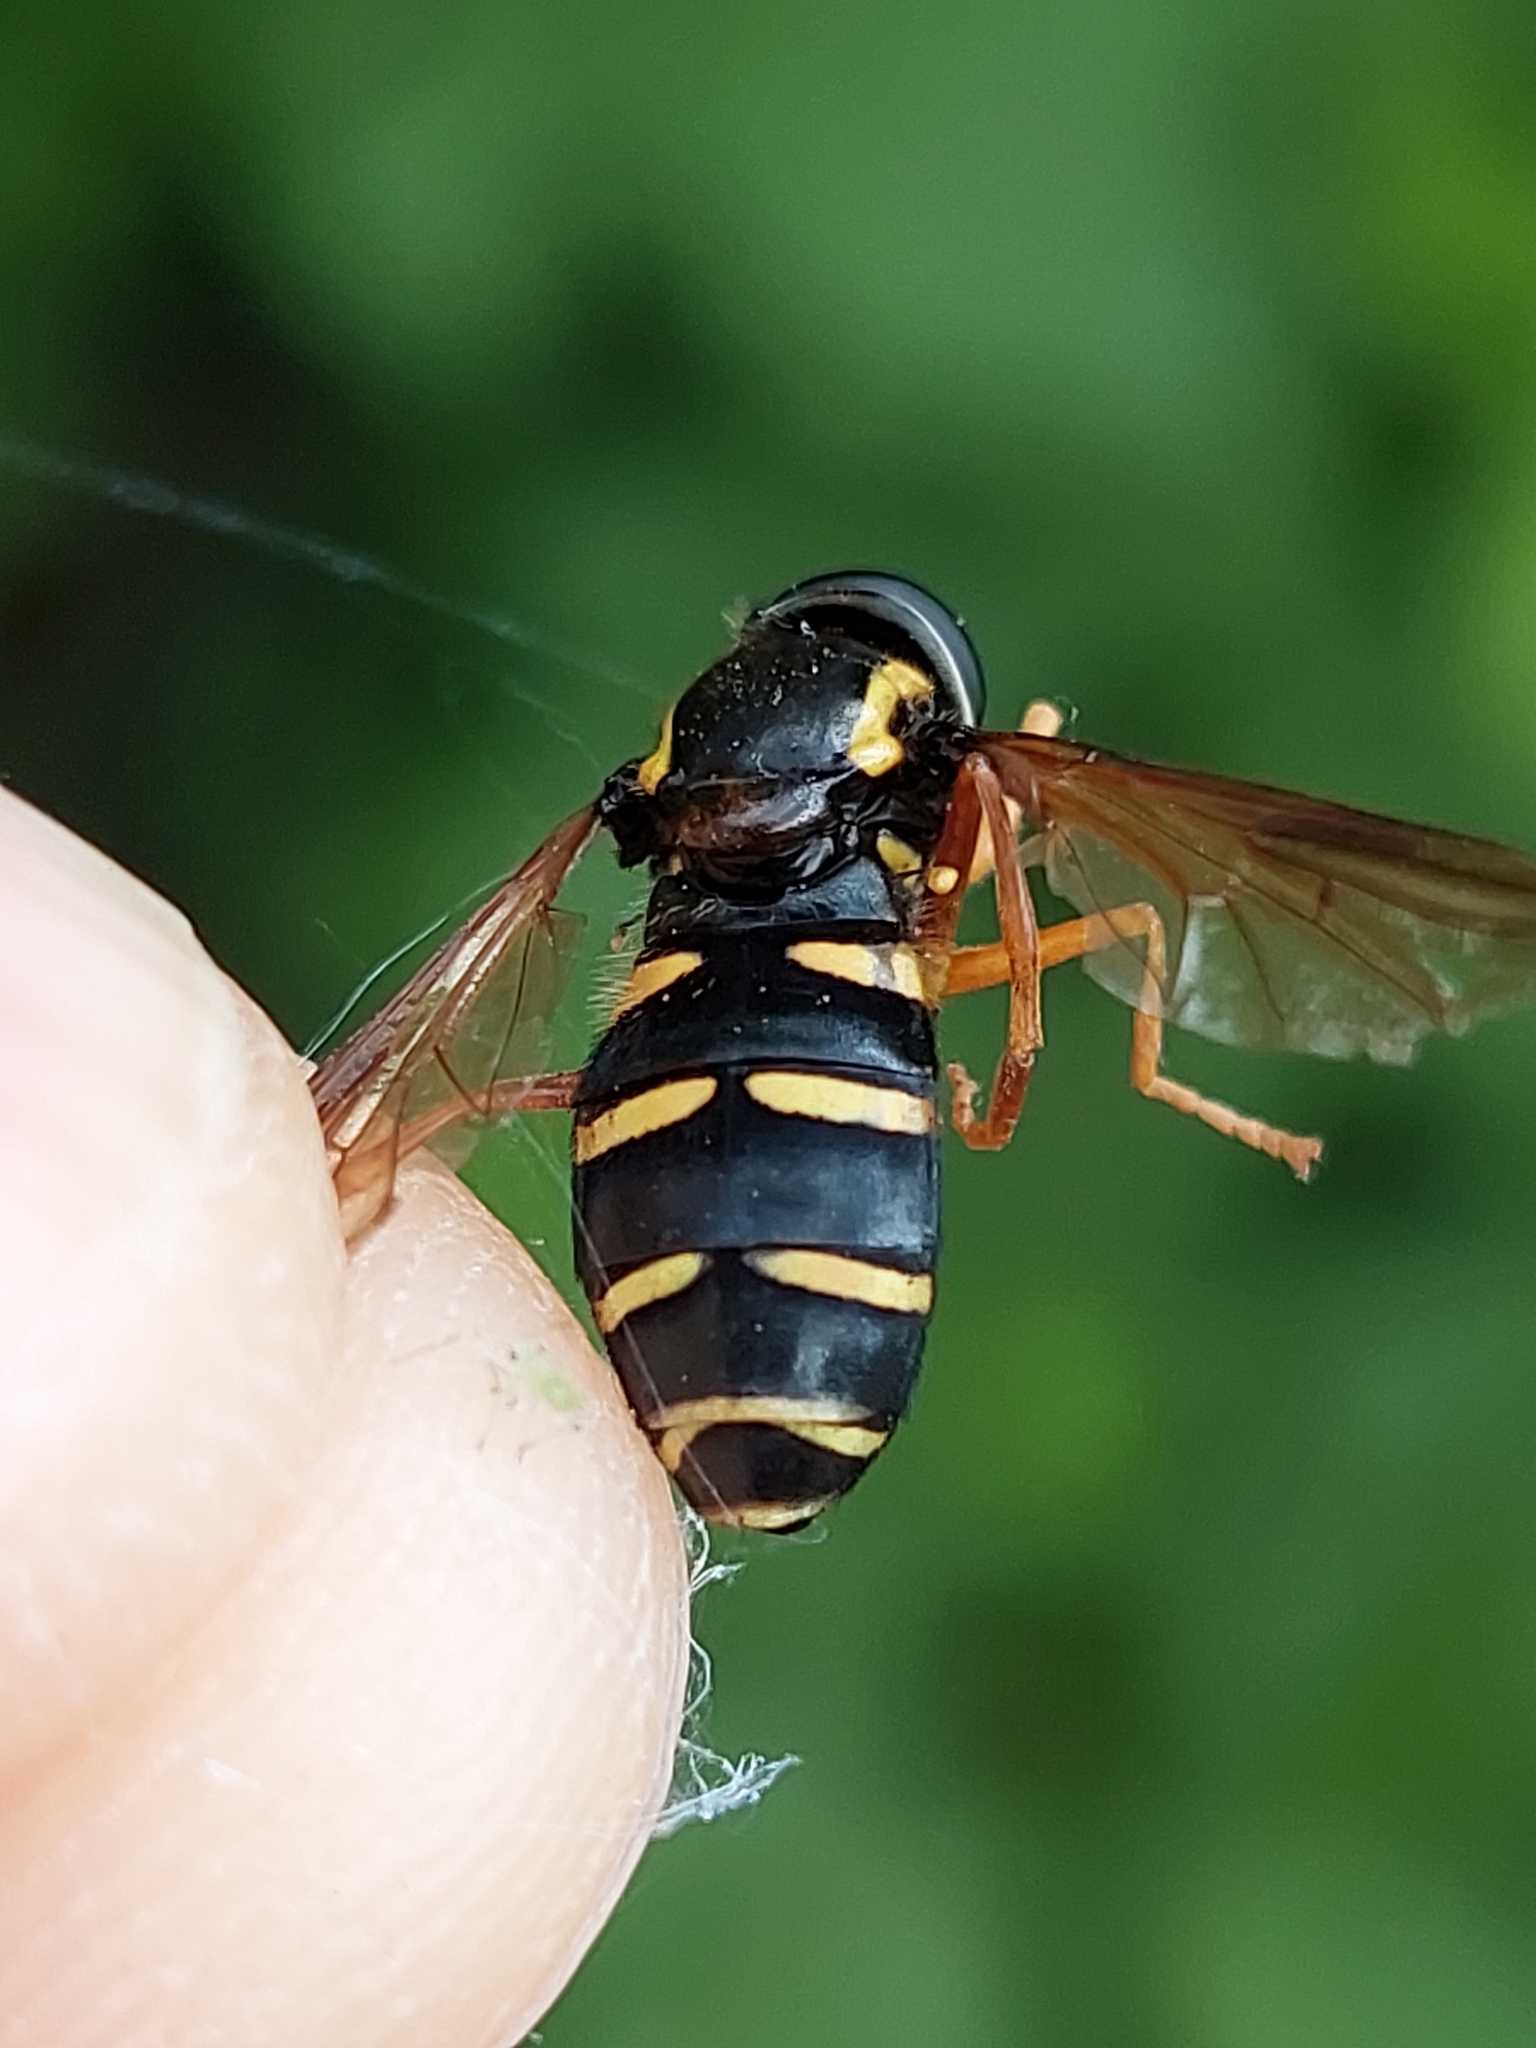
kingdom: Animalia
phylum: Arthropoda
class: Insecta
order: Diptera
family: Syrphidae
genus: Philhelius
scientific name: Philhelius citrofasciata
